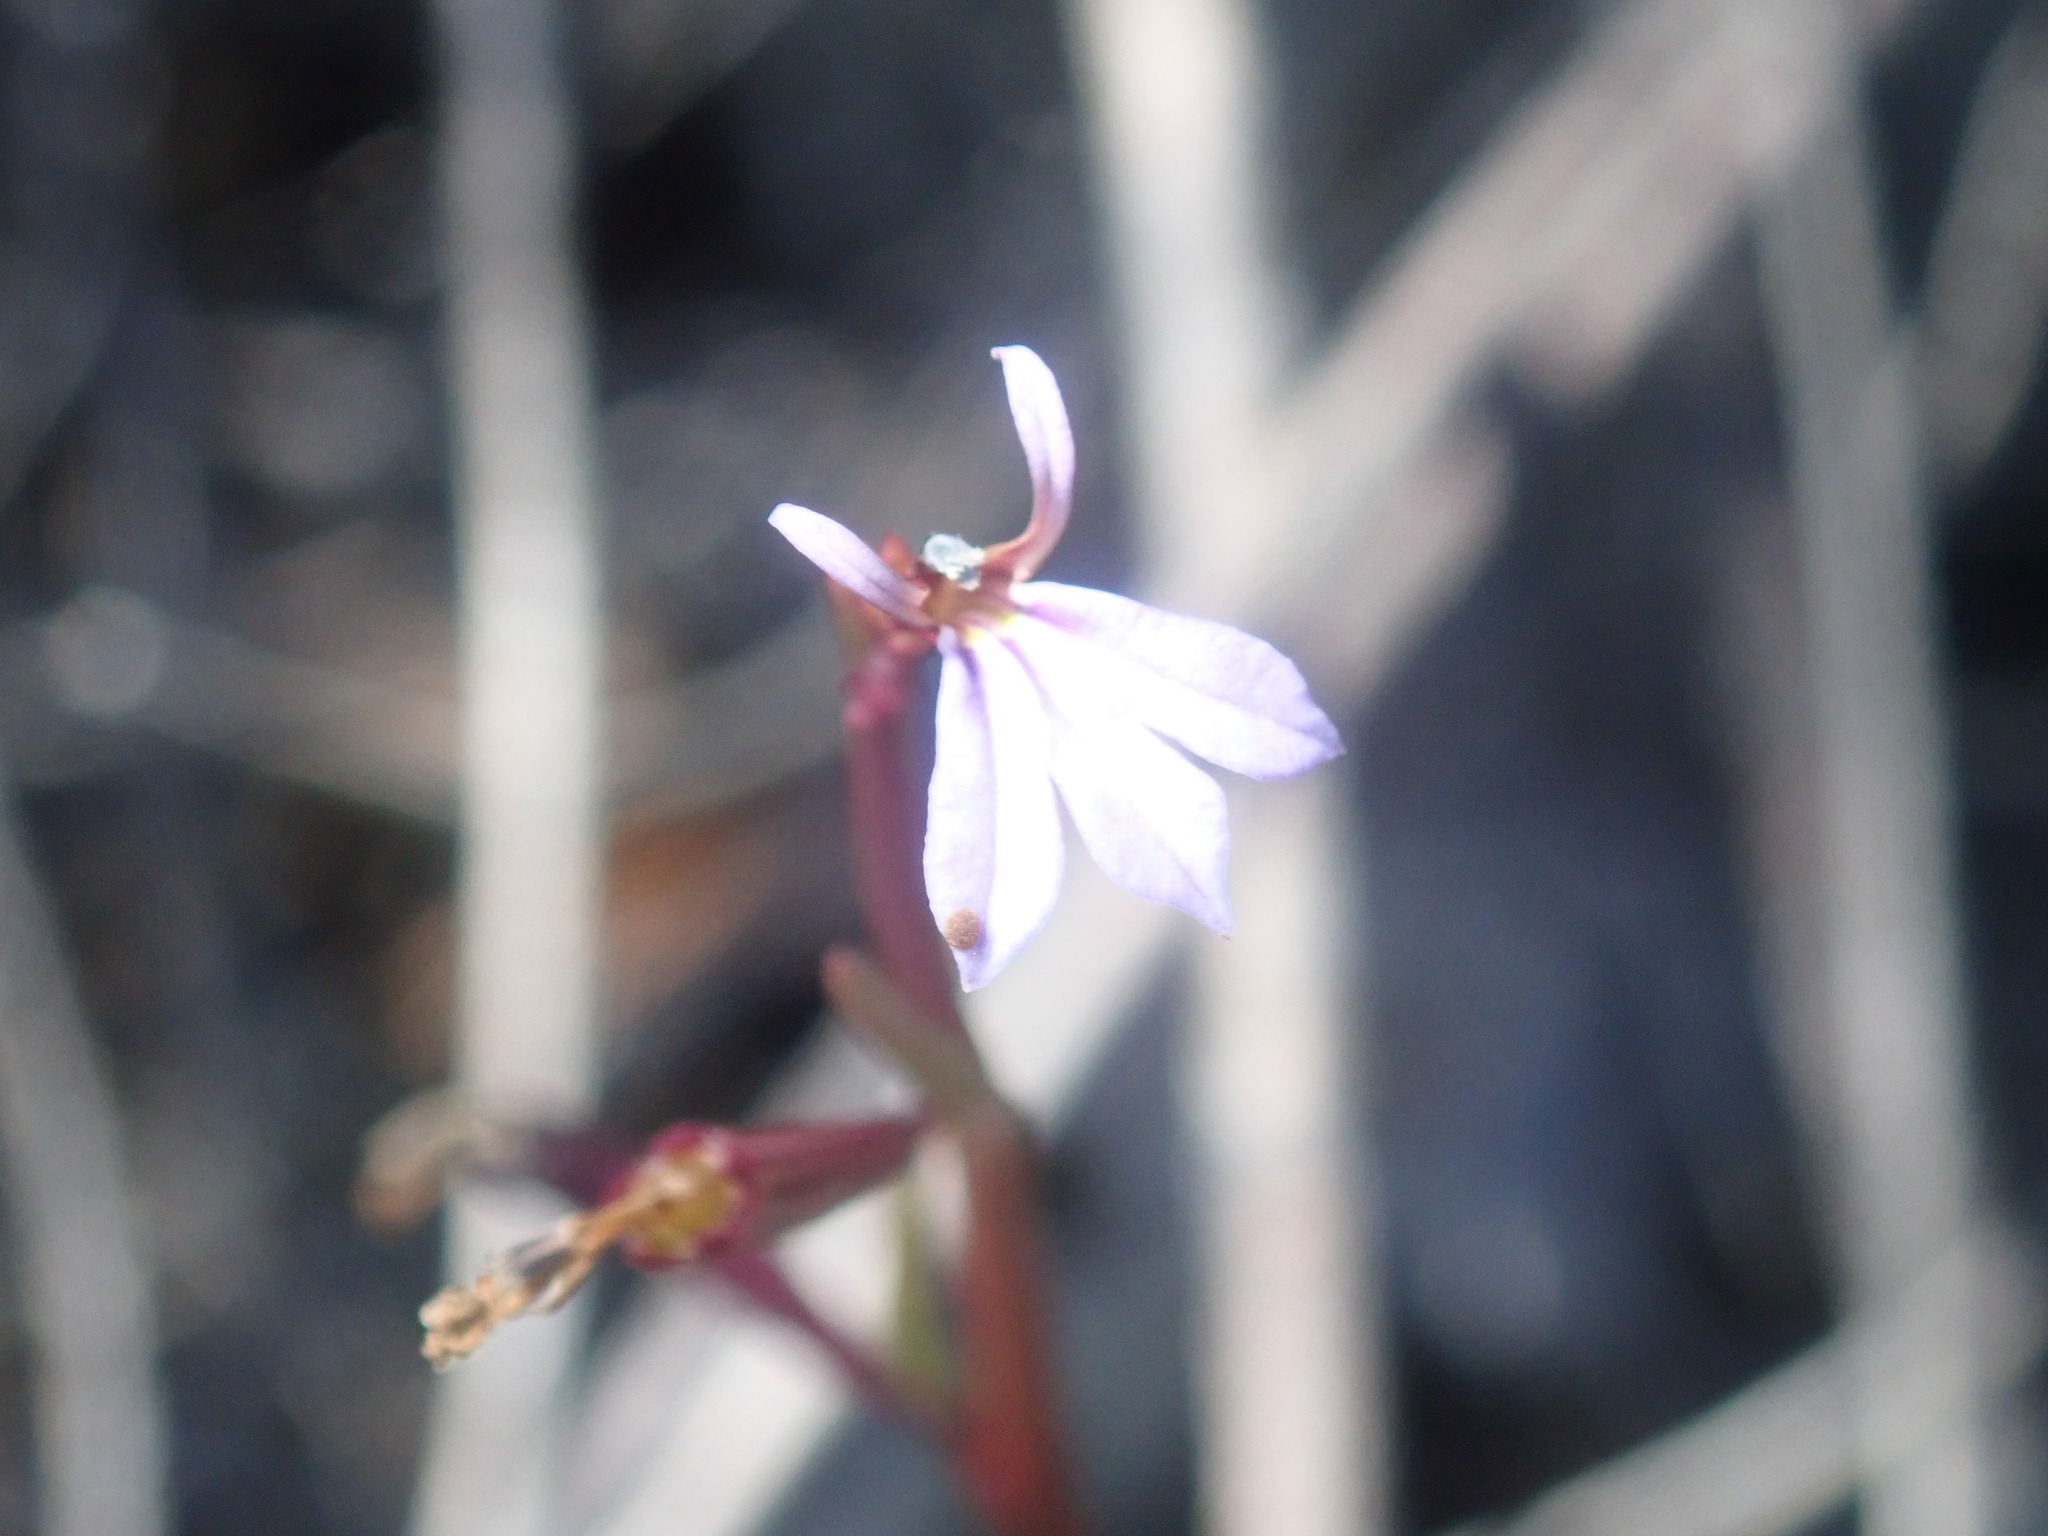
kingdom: Plantae
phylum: Tracheophyta
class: Magnoliopsida
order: Asterales
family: Campanulaceae
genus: Lobelia
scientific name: Lobelia anceps
